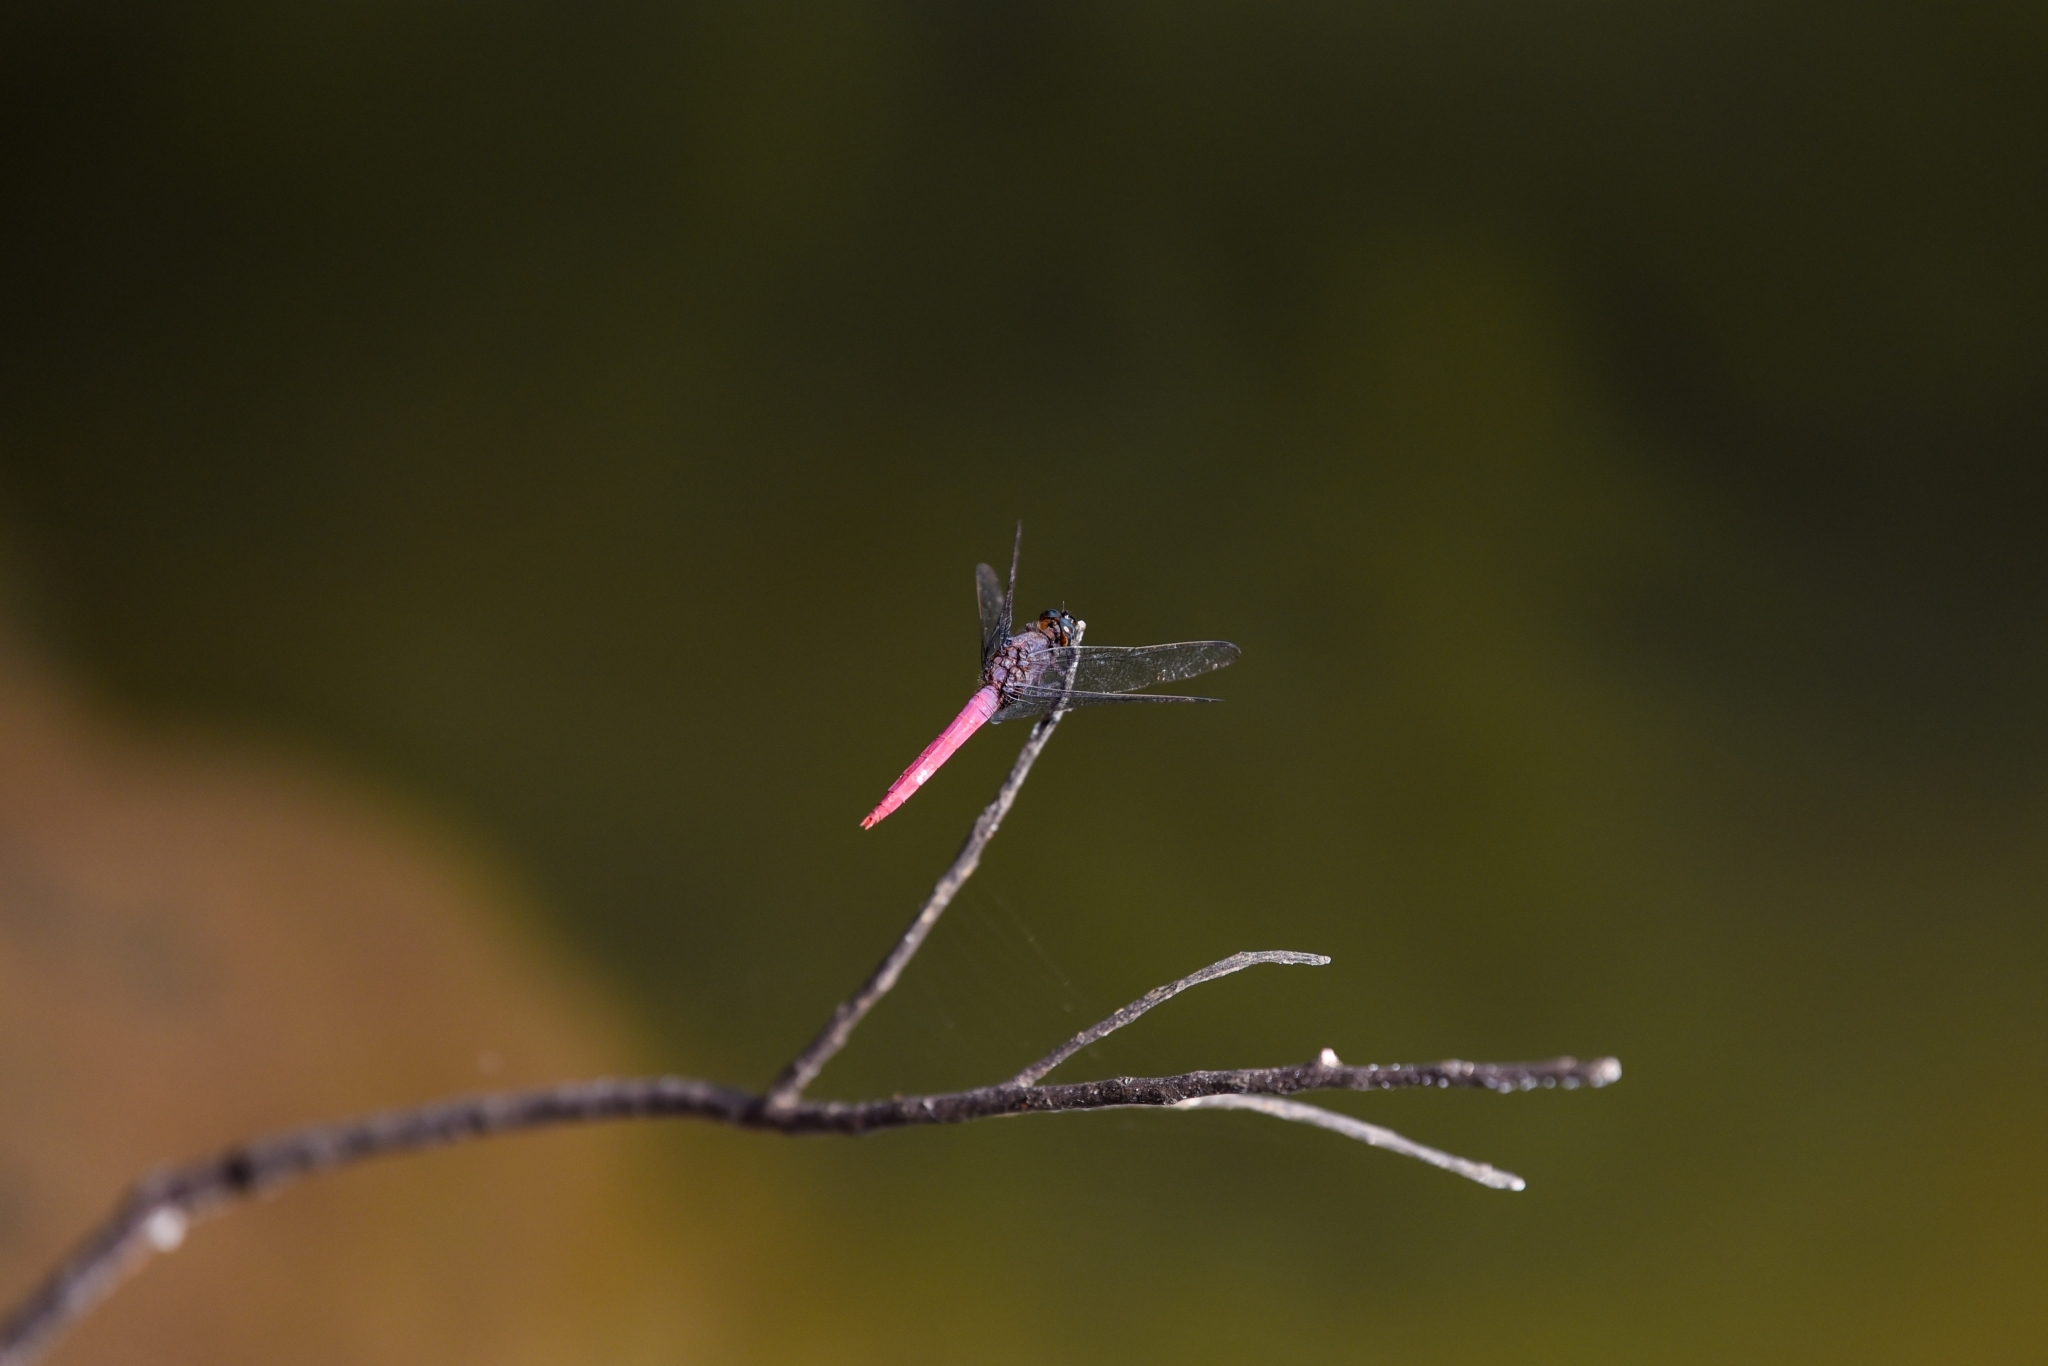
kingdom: Animalia
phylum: Arthropoda
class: Insecta
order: Odonata
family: Libellulidae
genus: Orthetrum
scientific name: Orthetrum pruinosum
